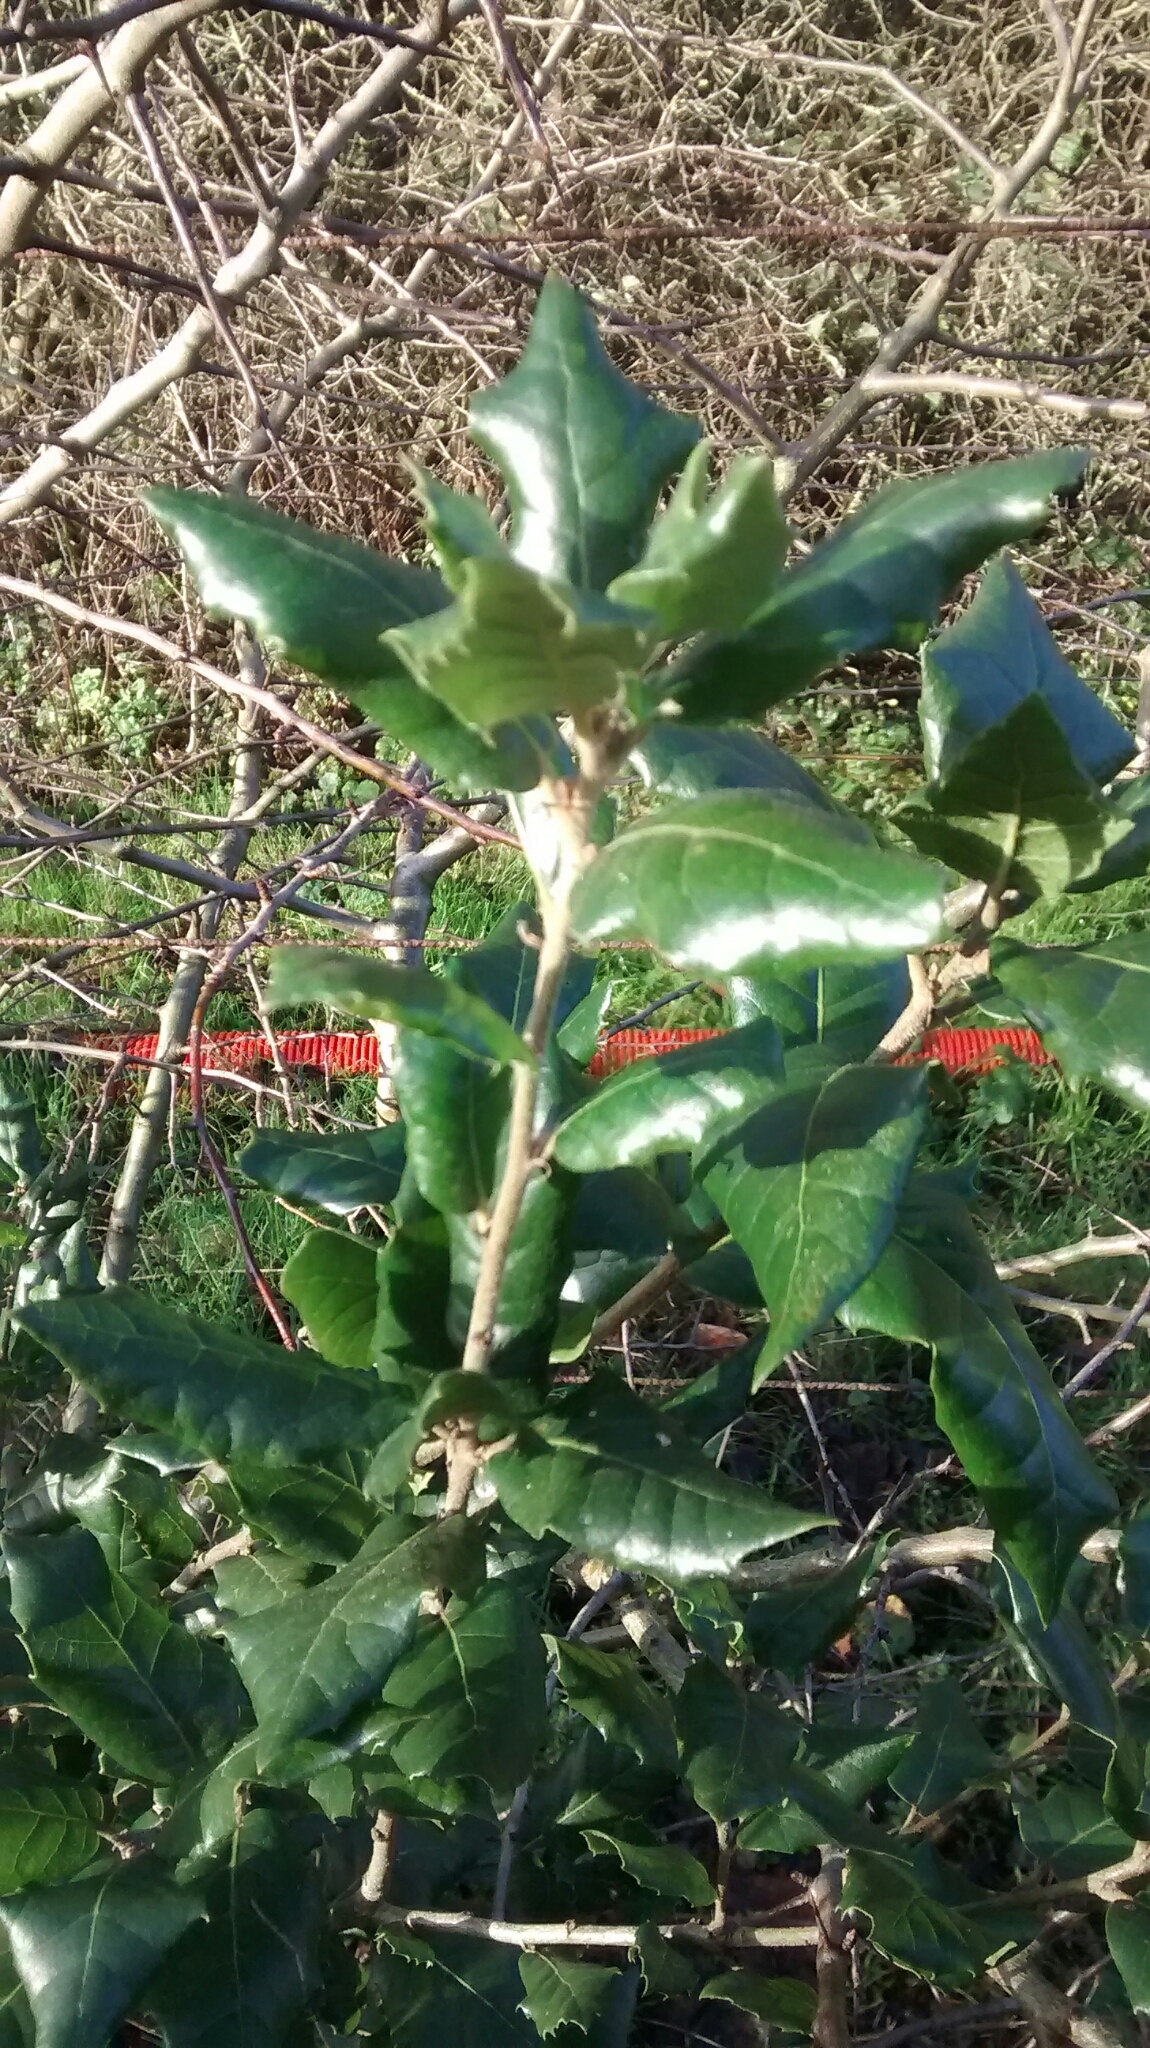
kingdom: Plantae
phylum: Tracheophyta
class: Magnoliopsida
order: Fagales
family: Fagaceae
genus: Quercus
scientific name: Quercus ilex
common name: Evergreen oak
